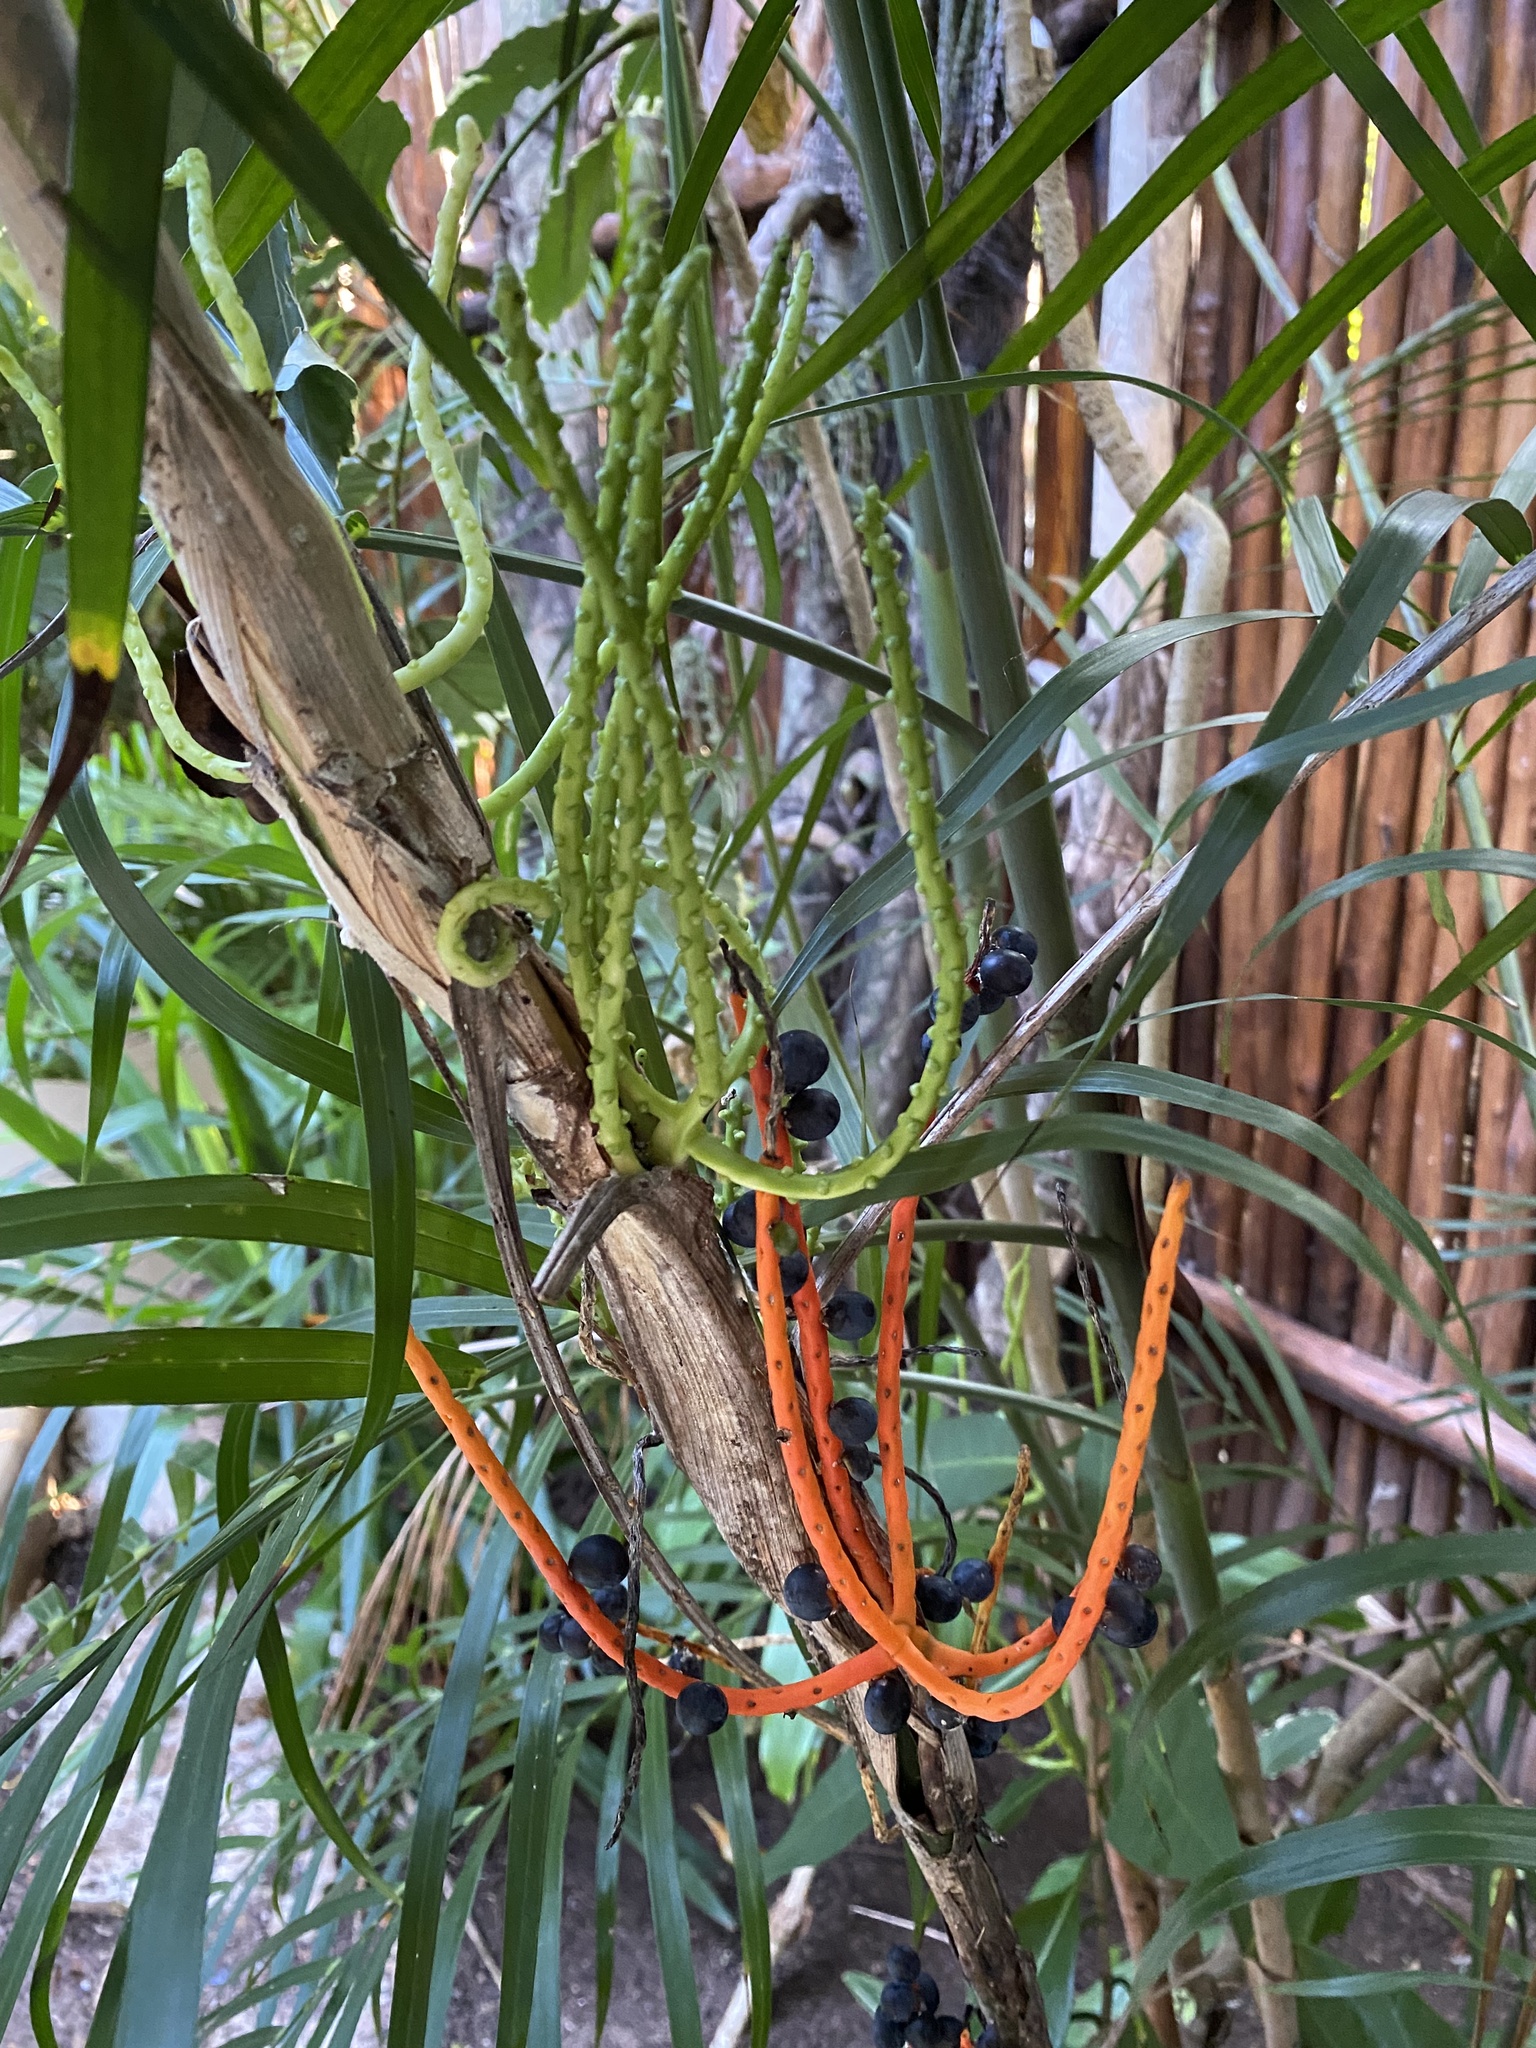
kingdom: Plantae
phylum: Tracheophyta
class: Liliopsida
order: Arecales
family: Arecaceae
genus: Chamaedorea
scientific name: Chamaedorea seifrizii
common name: Seifriz's chamaedorea
